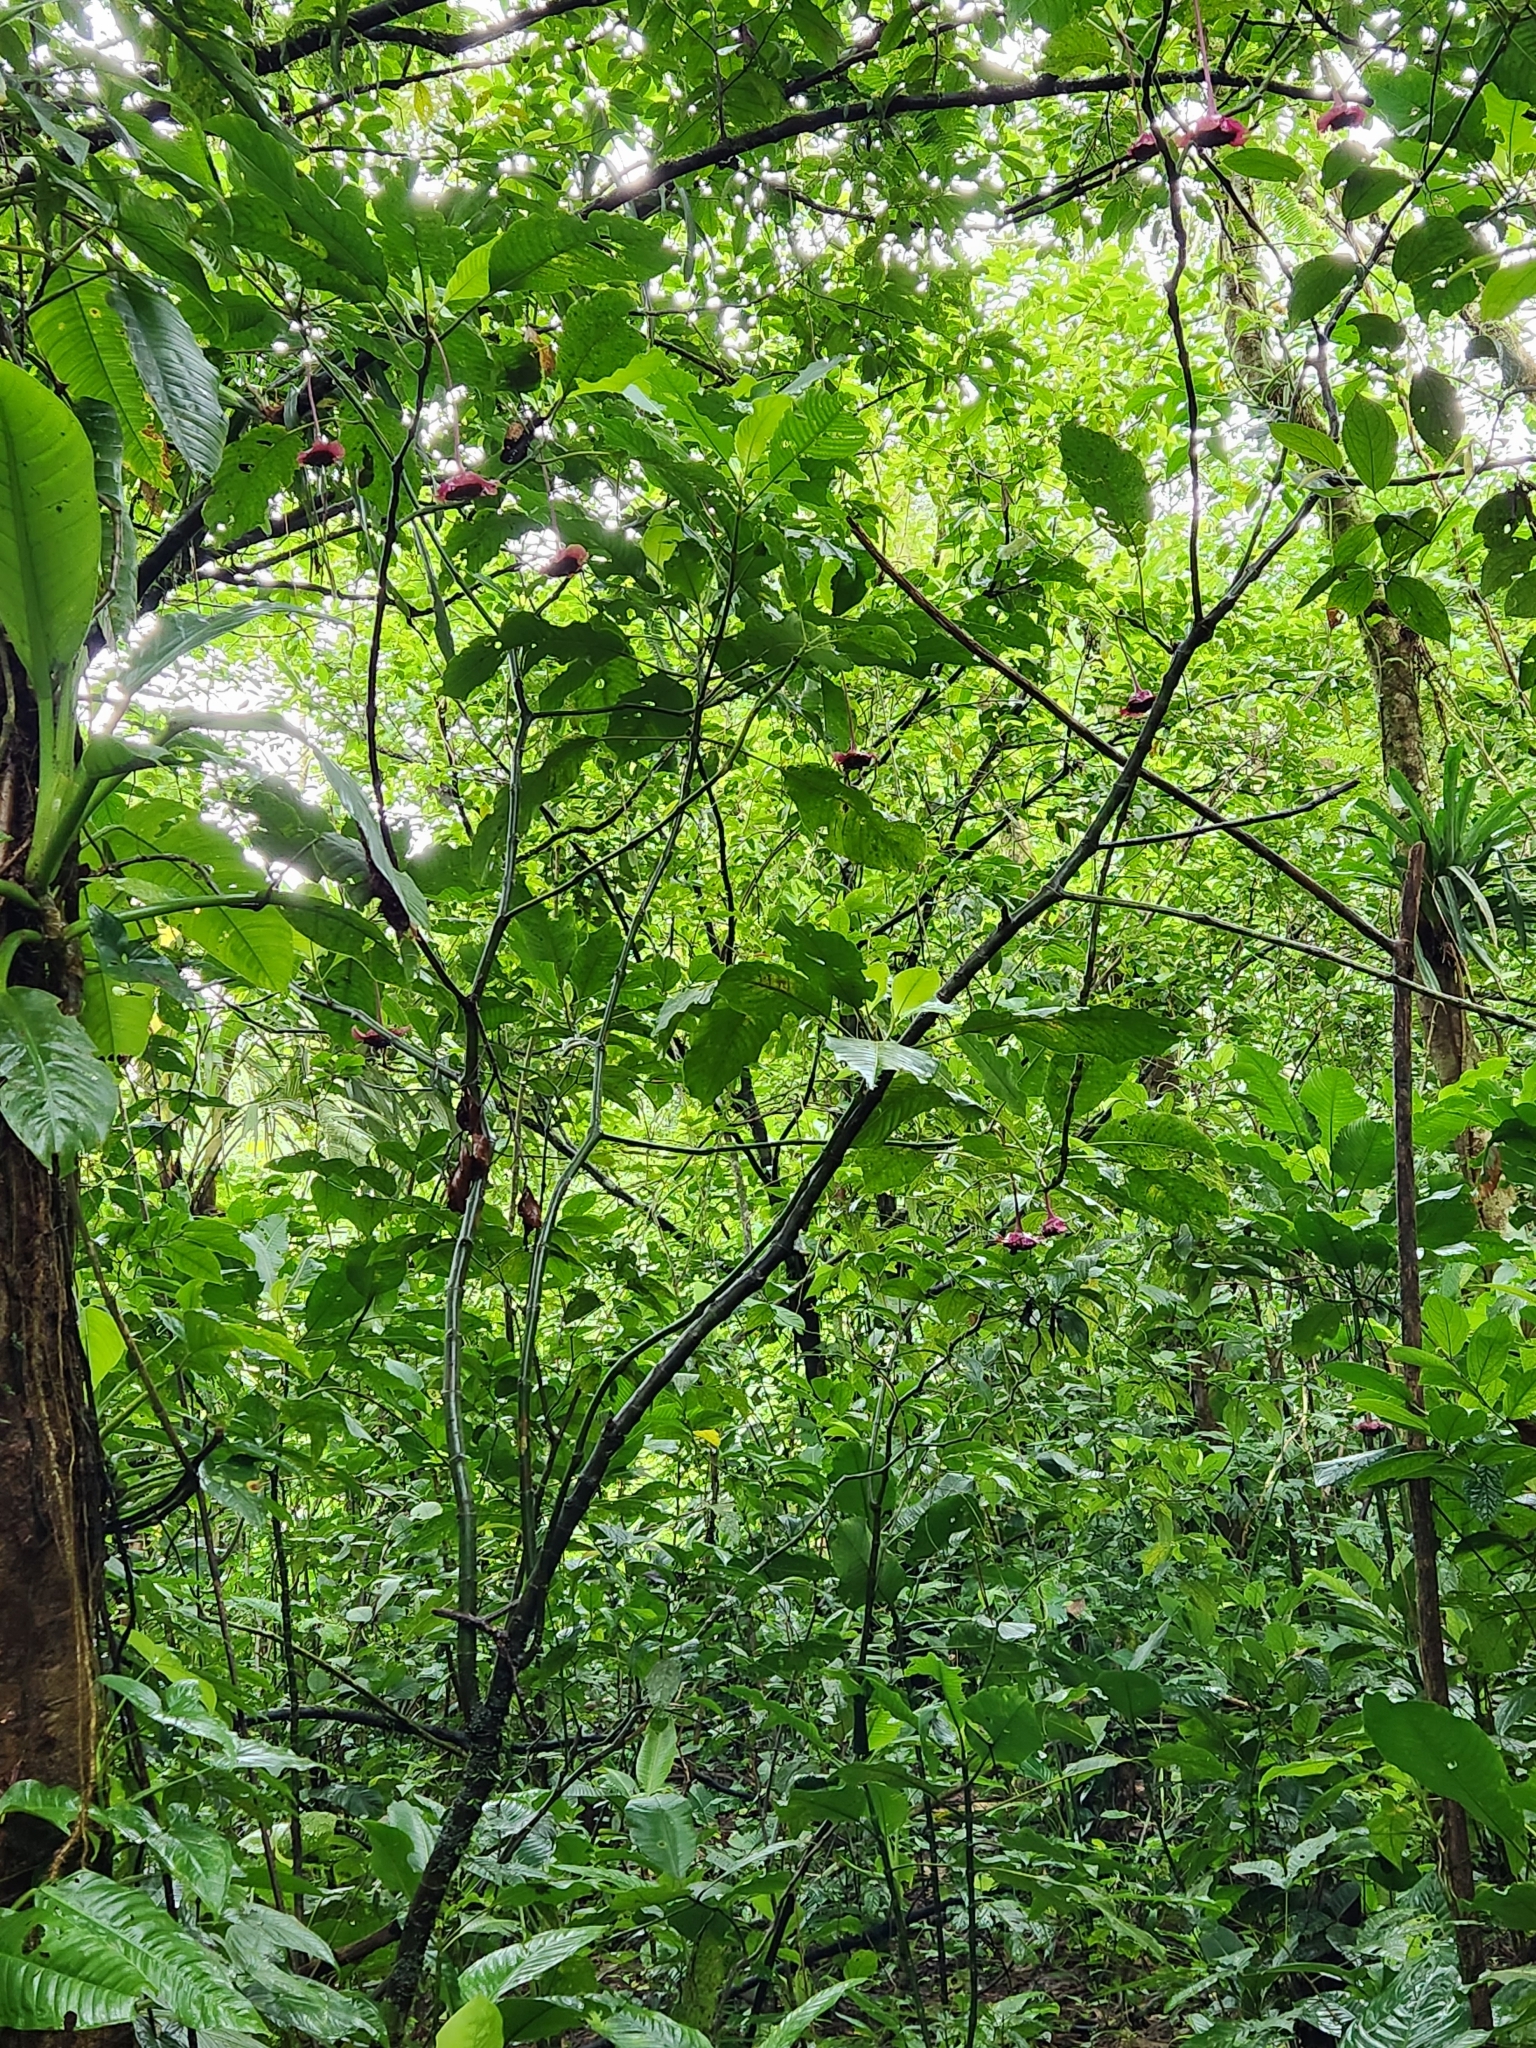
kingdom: Plantae
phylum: Tracheophyta
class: Magnoliopsida
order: Gentianales
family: Rubiaceae
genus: Palicourea
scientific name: Palicourea correae
